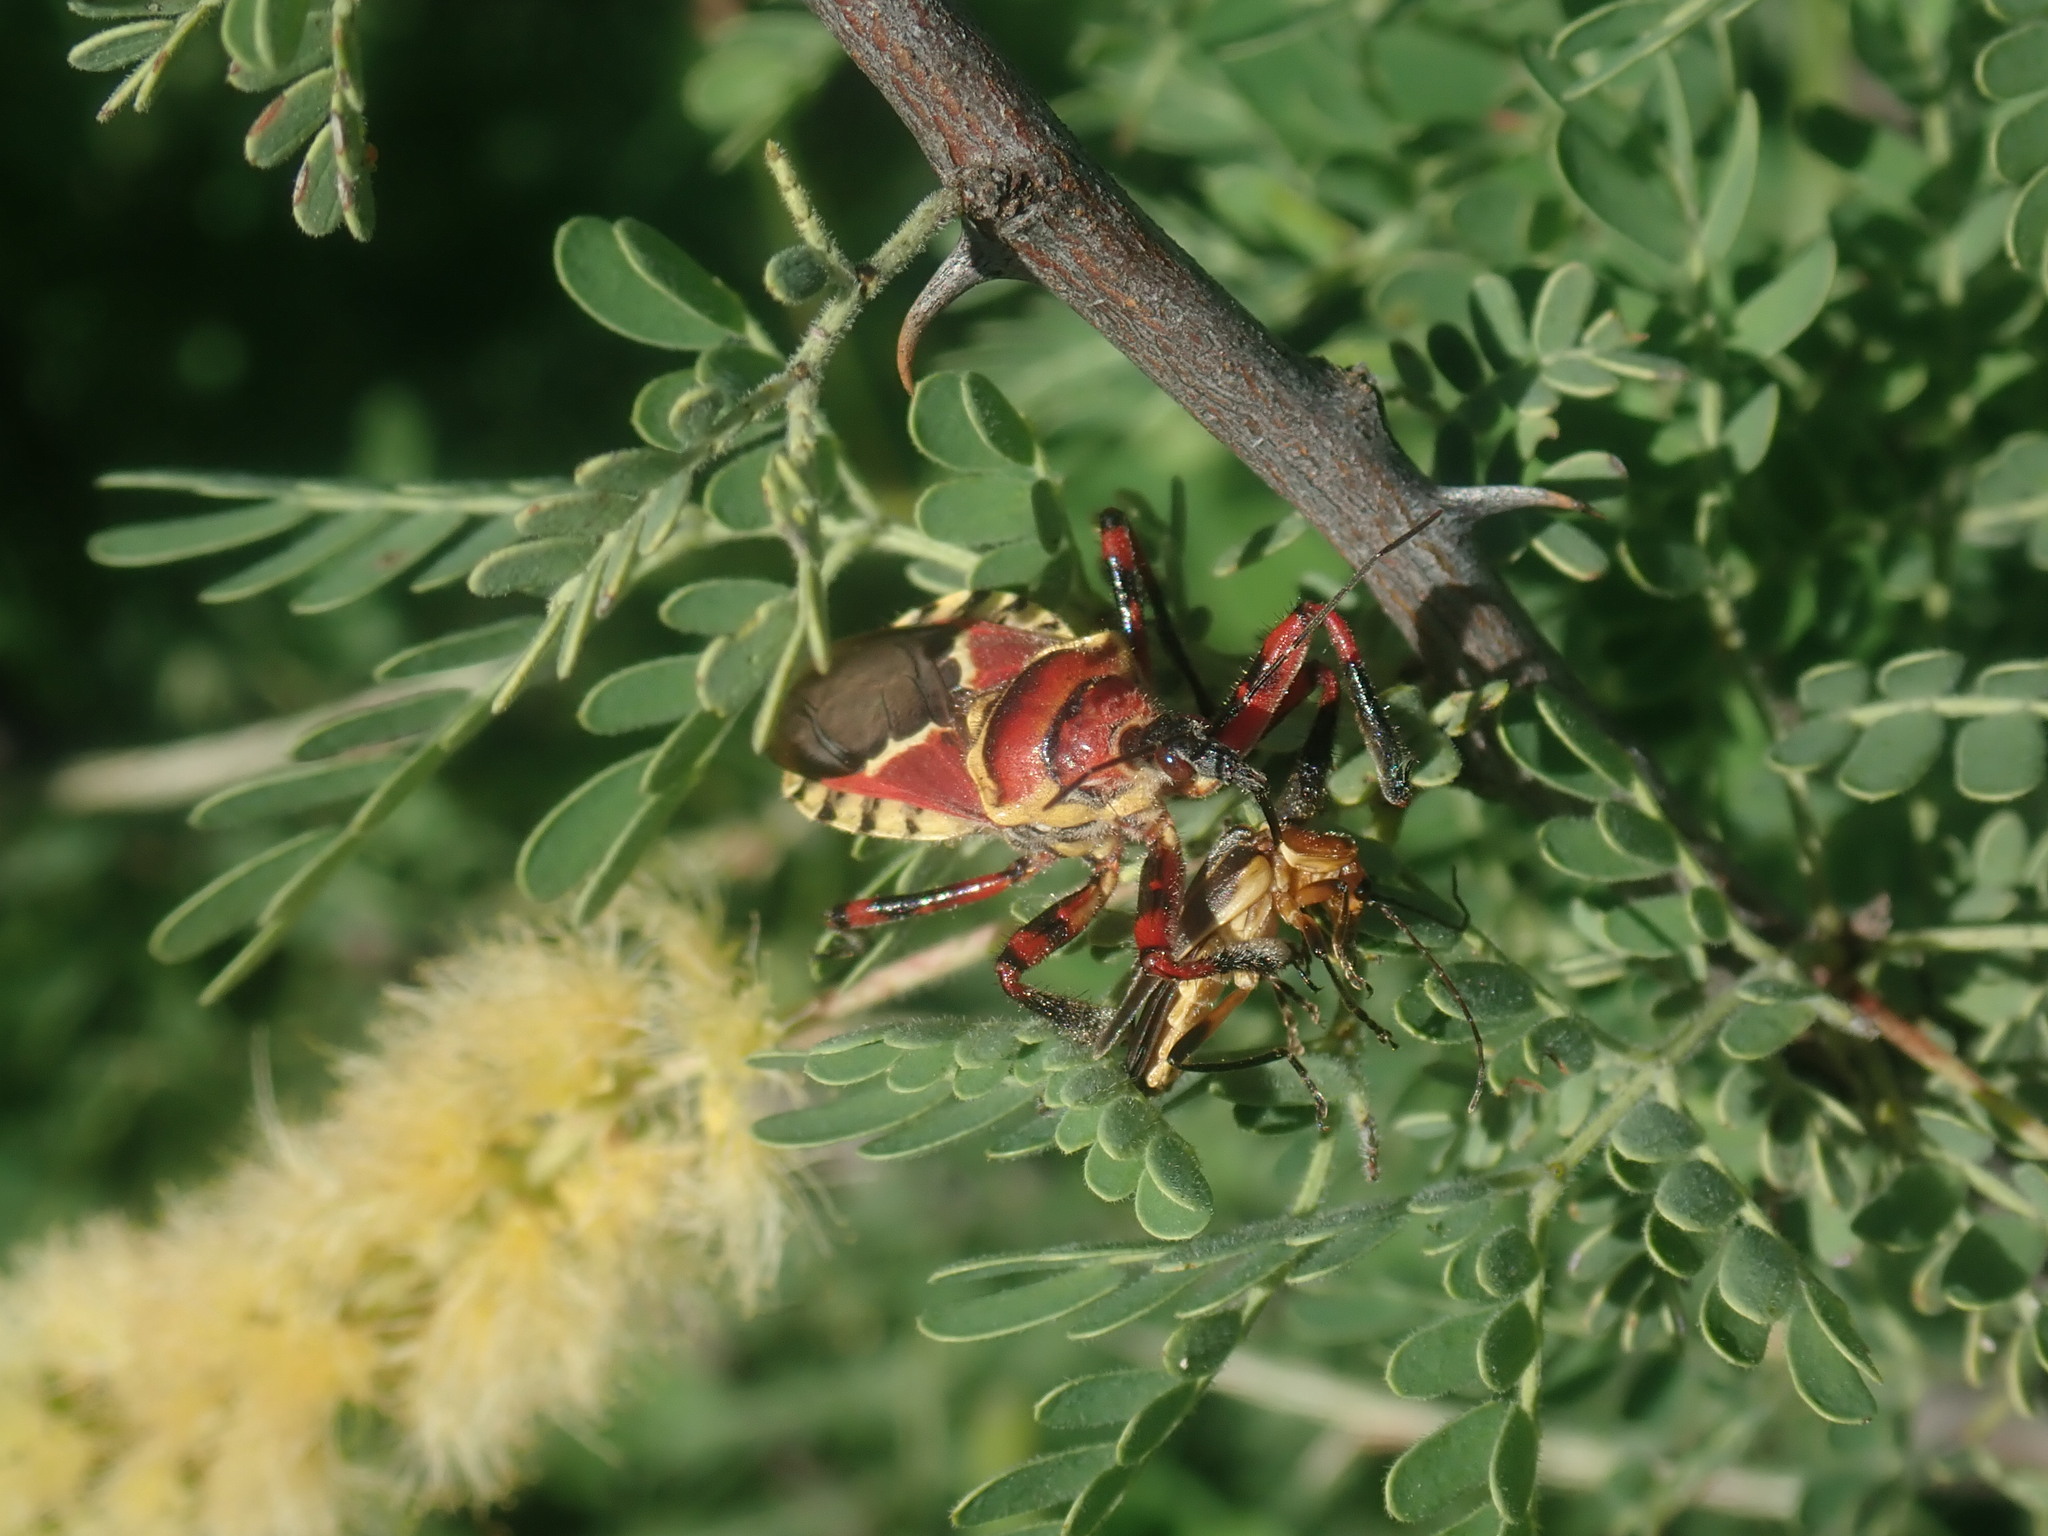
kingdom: Animalia
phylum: Arthropoda
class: Insecta
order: Hemiptera
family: Reduviidae
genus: Apiomerus
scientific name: Apiomerus flaviventris
